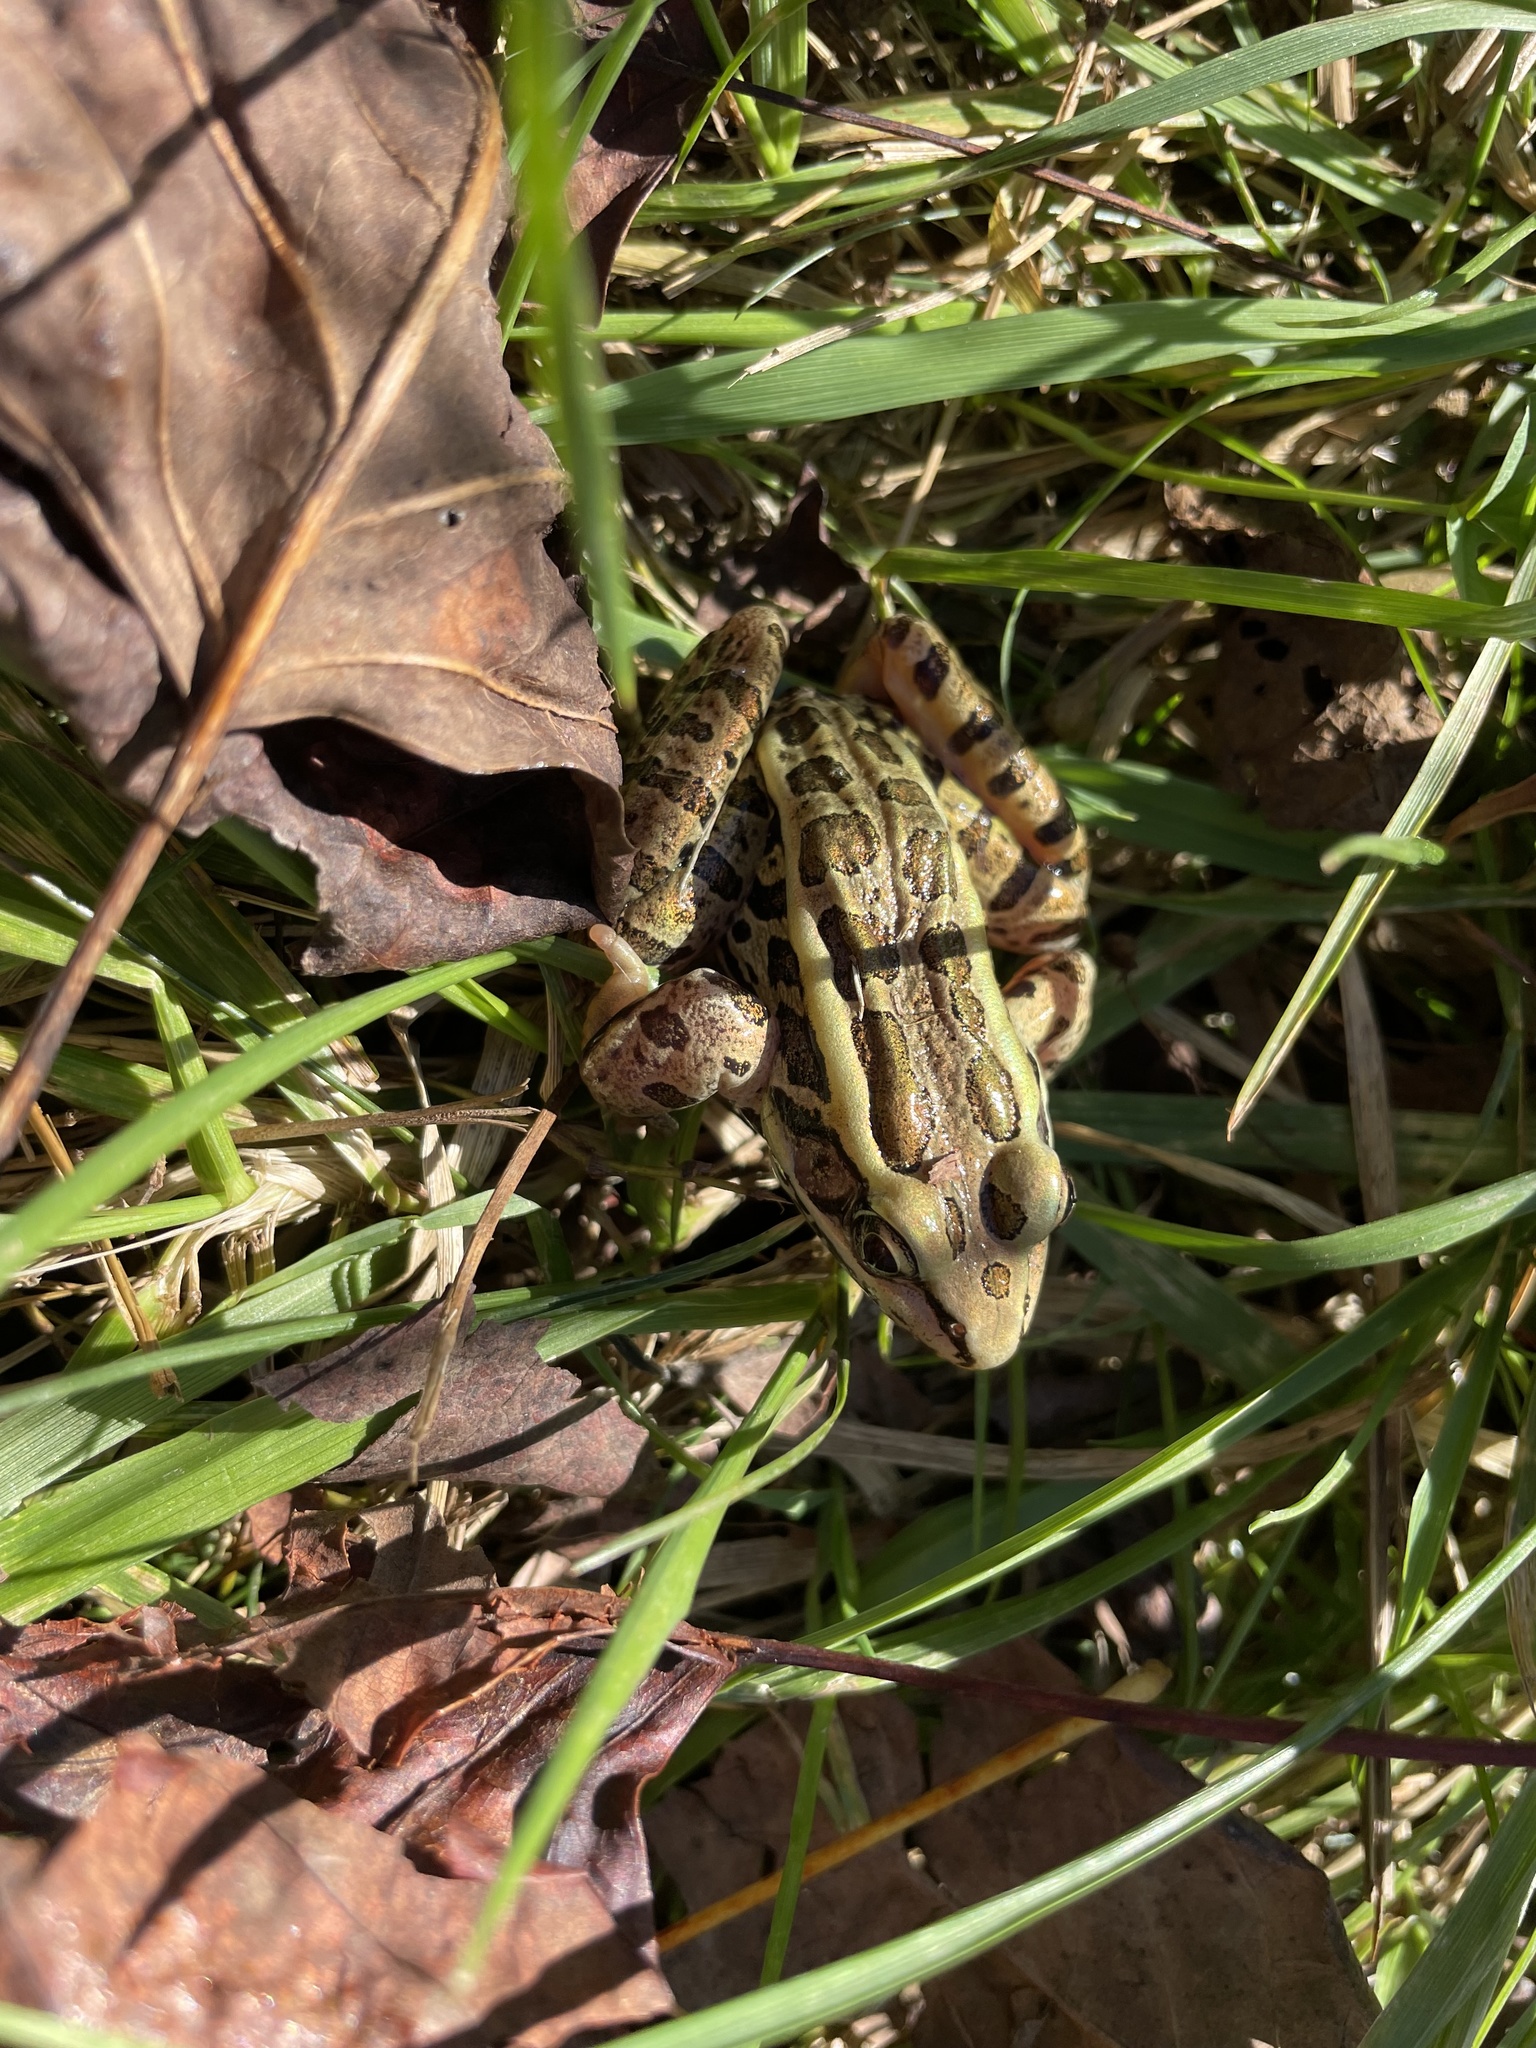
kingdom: Animalia
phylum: Chordata
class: Amphibia
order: Anura
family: Ranidae
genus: Lithobates
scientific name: Lithobates palustris
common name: Pickerel frog
